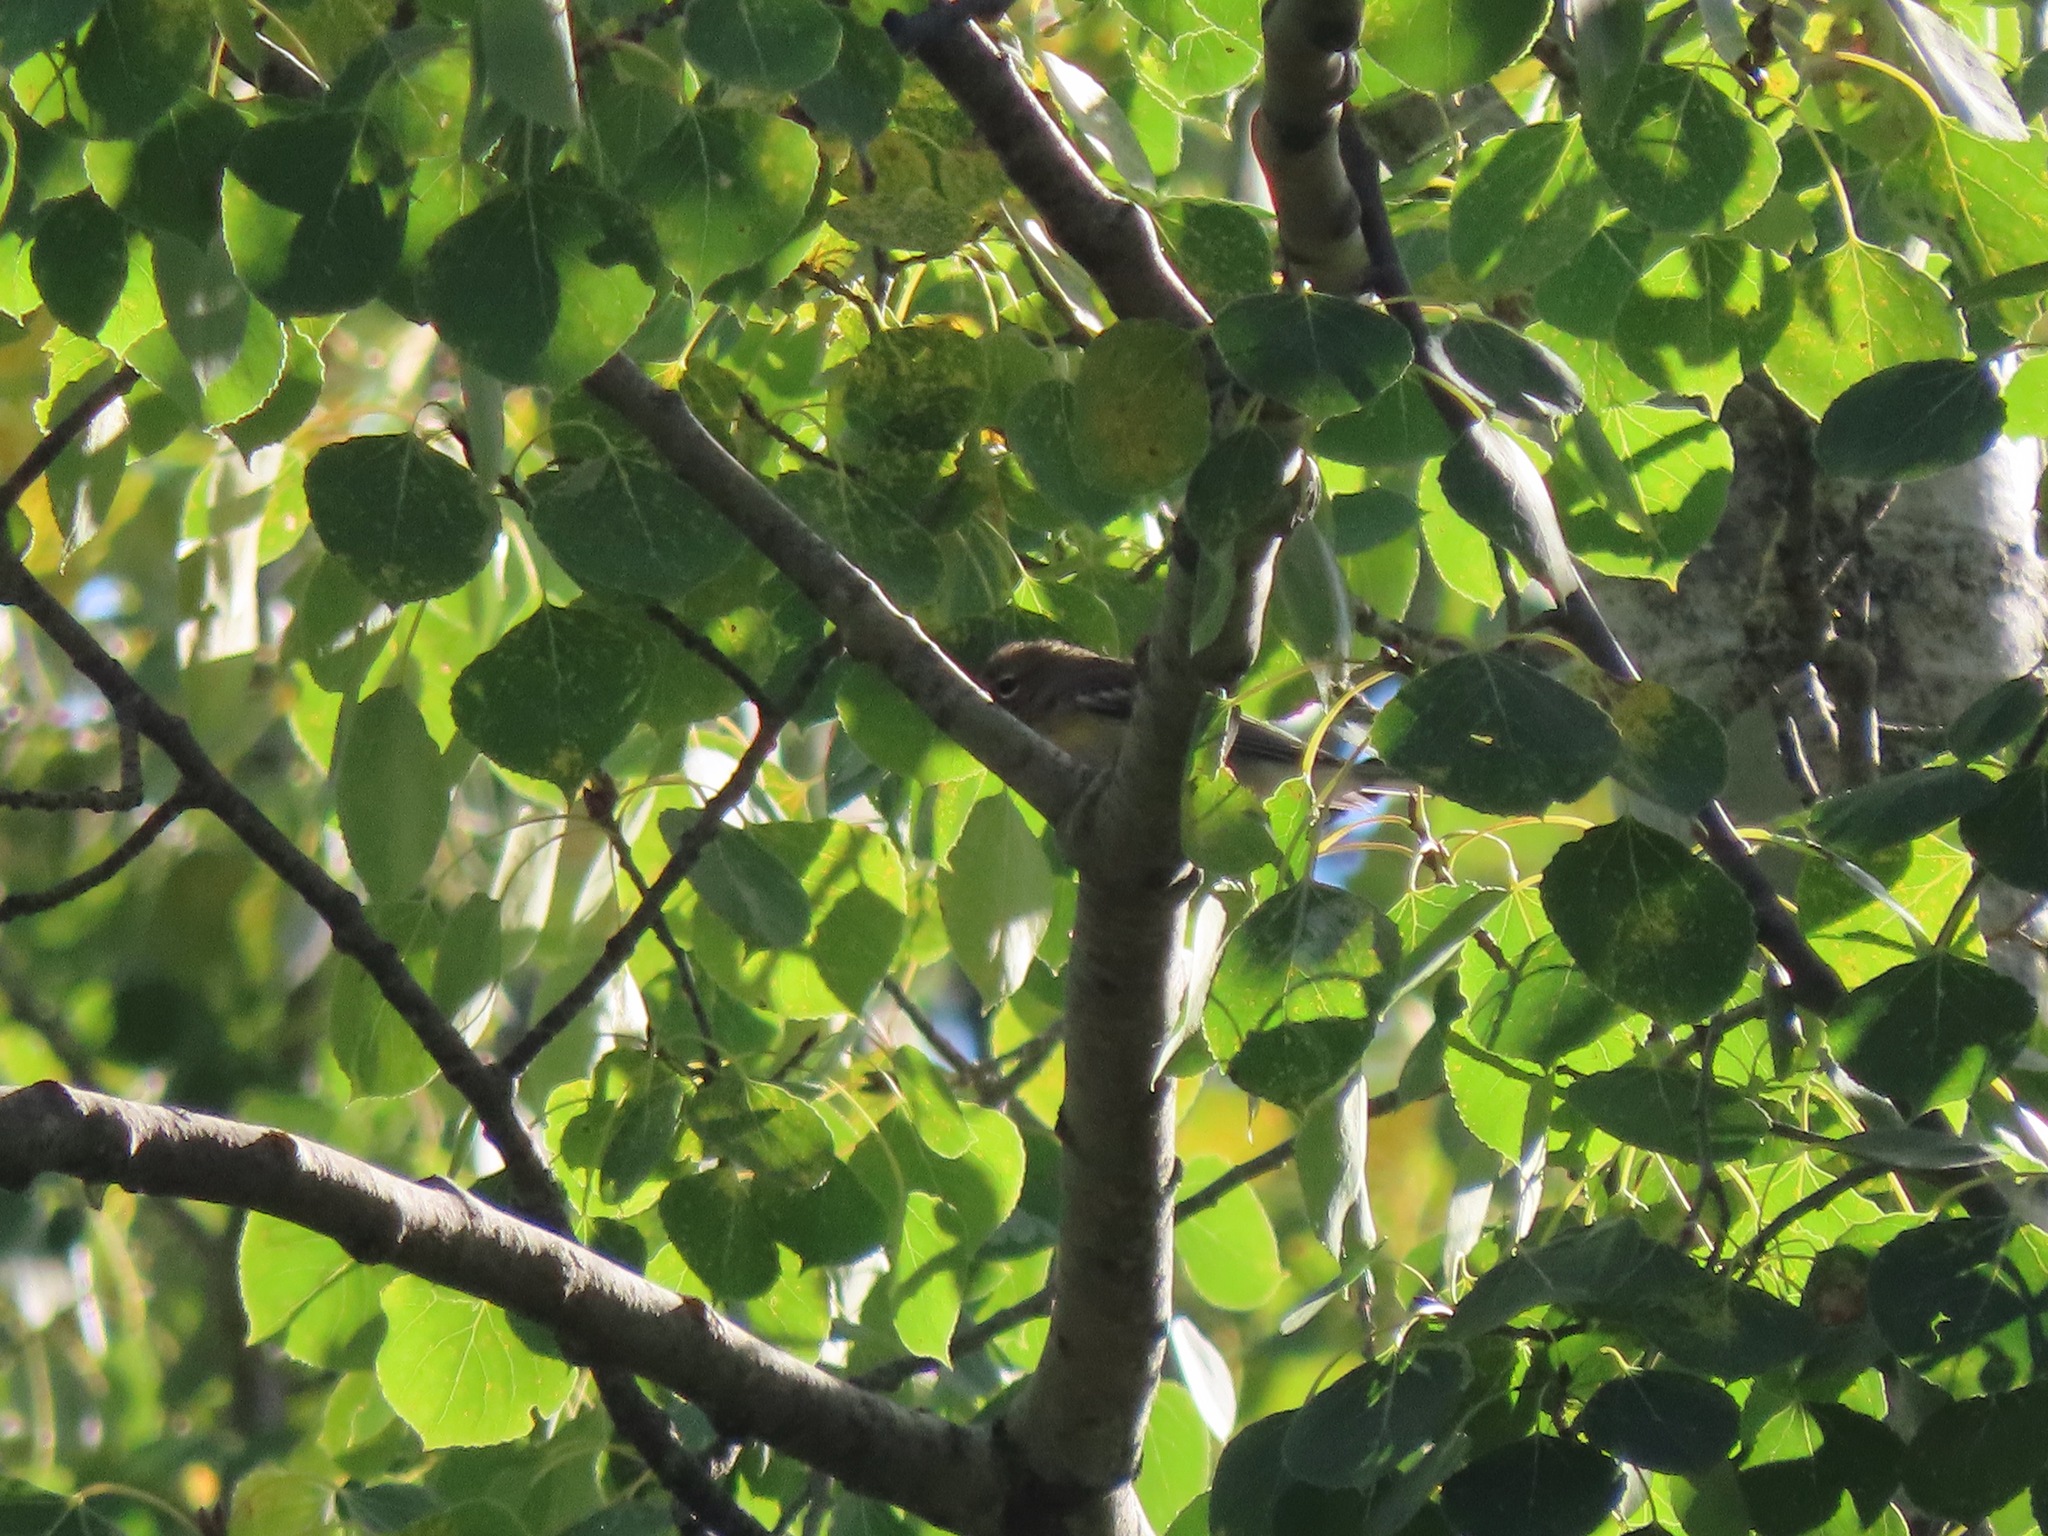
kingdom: Animalia
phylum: Chordata
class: Aves
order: Passeriformes
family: Parulidae
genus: Setophaga
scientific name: Setophaga coronata
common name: Myrtle warbler
